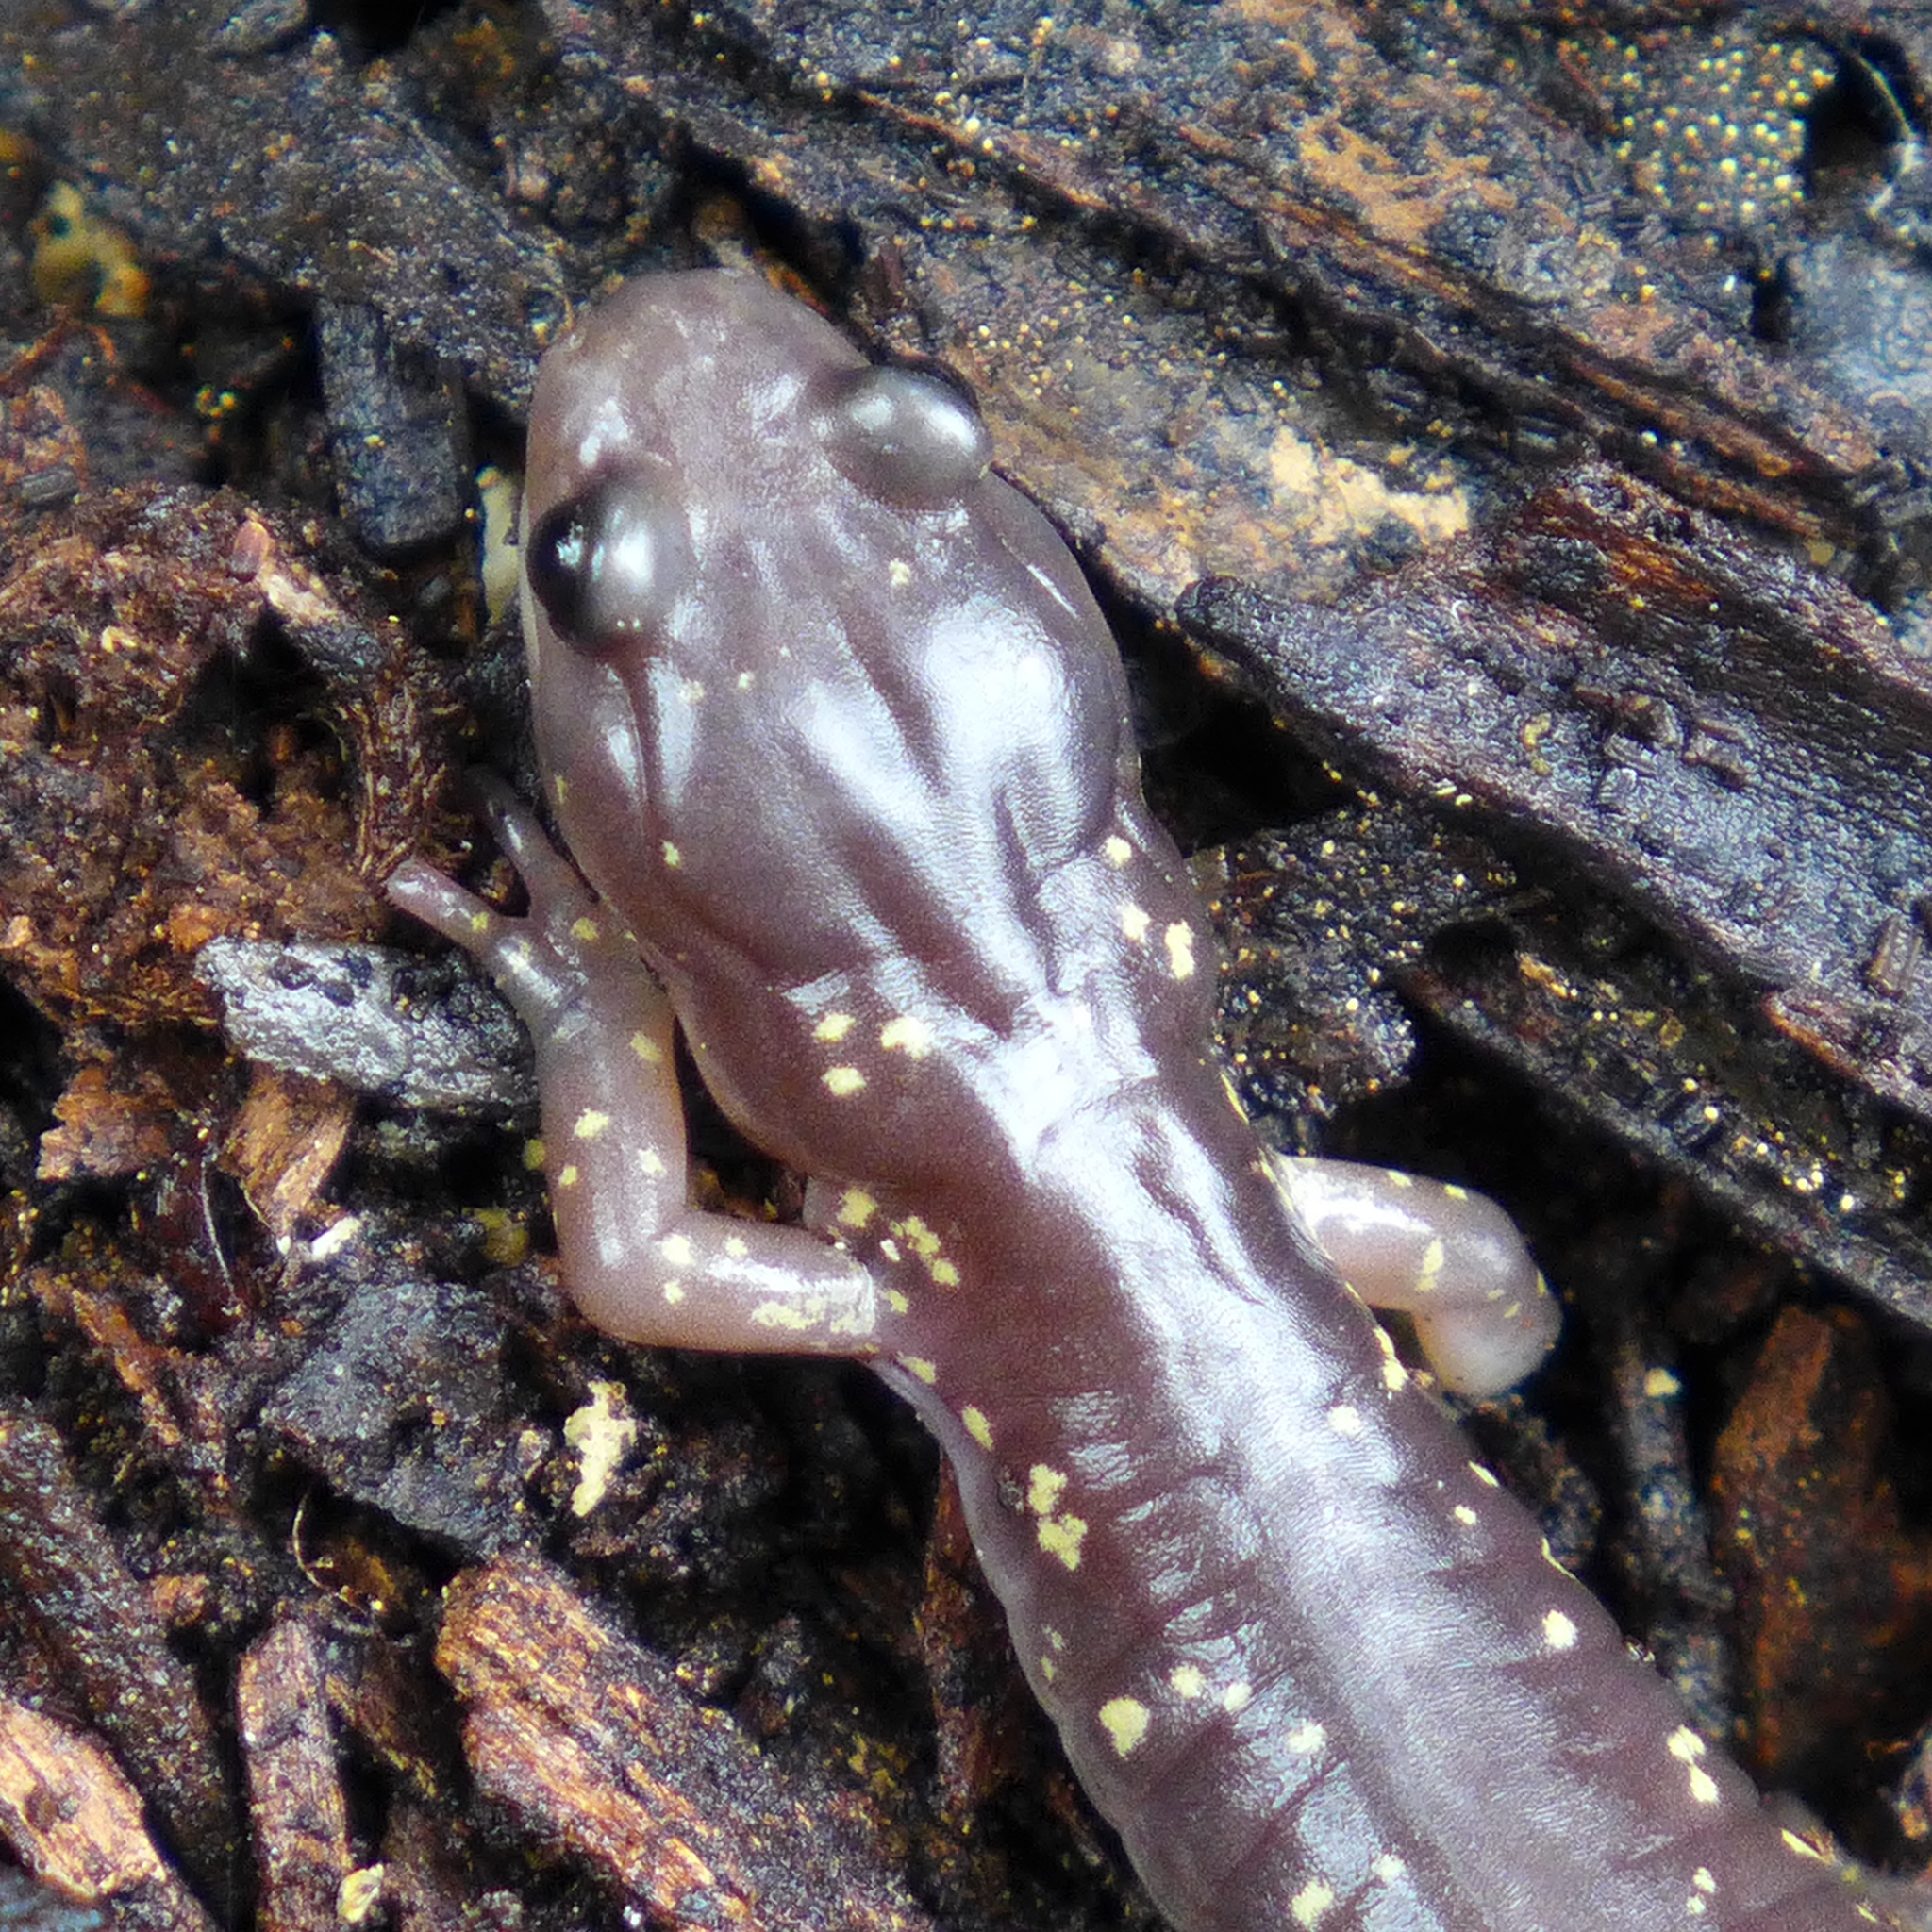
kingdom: Animalia
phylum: Chordata
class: Amphibia
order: Caudata
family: Plethodontidae
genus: Aneides
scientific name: Aneides lugubris
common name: Arboreal salamander
